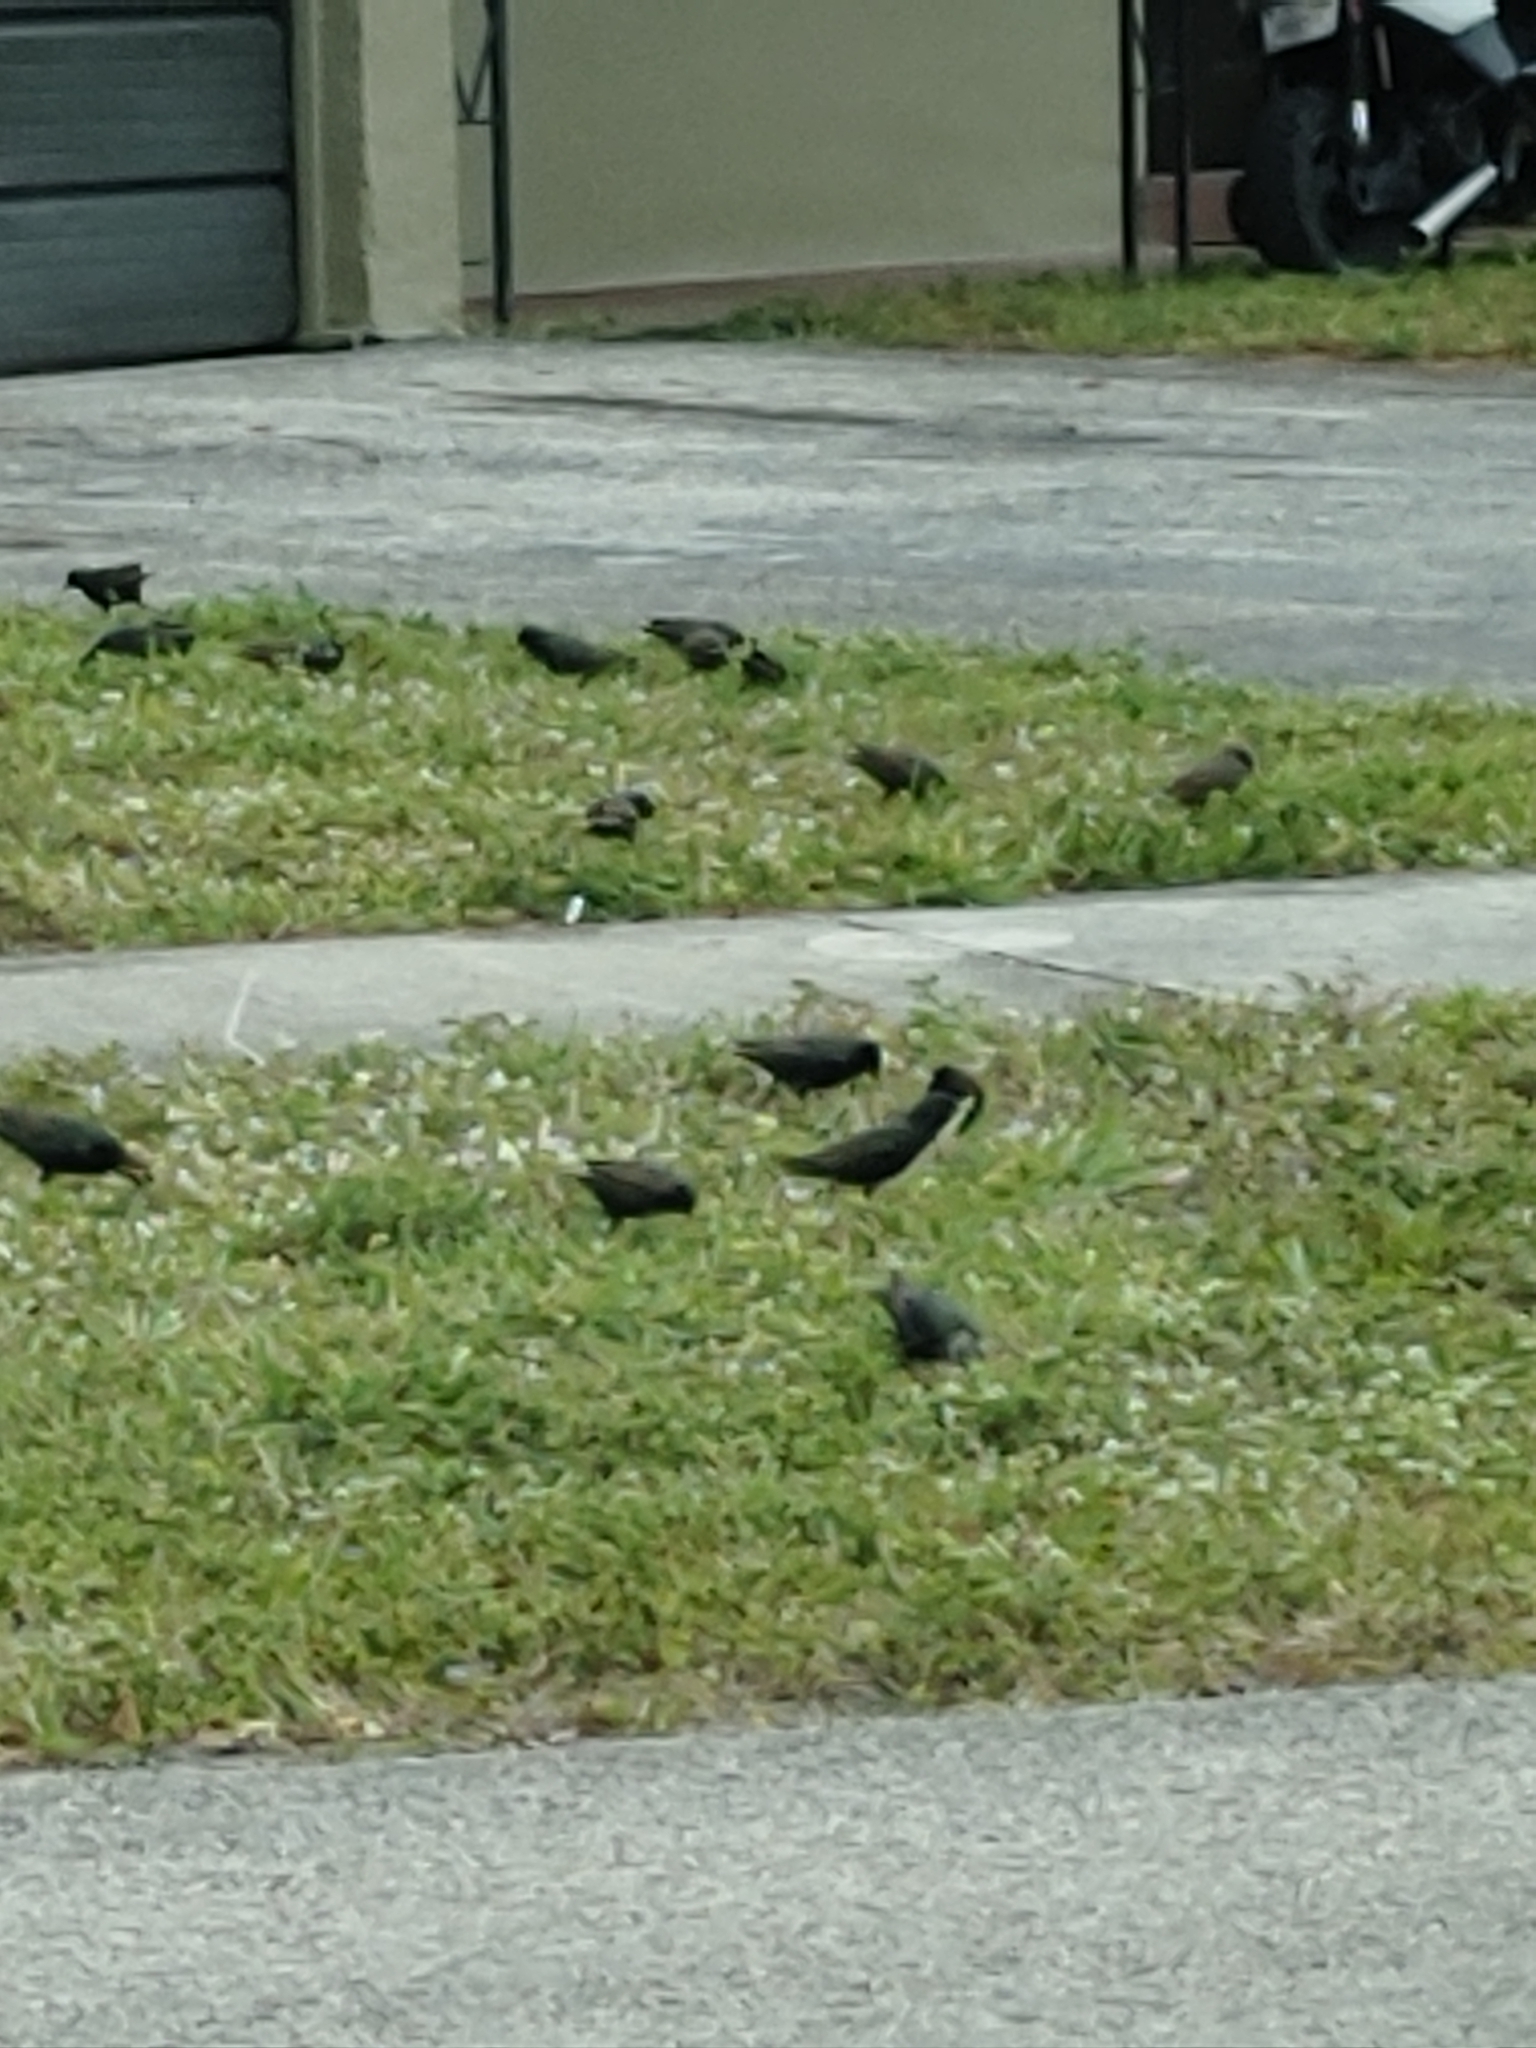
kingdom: Animalia
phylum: Chordata
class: Aves
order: Passeriformes
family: Sturnidae
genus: Sturnus
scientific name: Sturnus vulgaris
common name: Common starling
